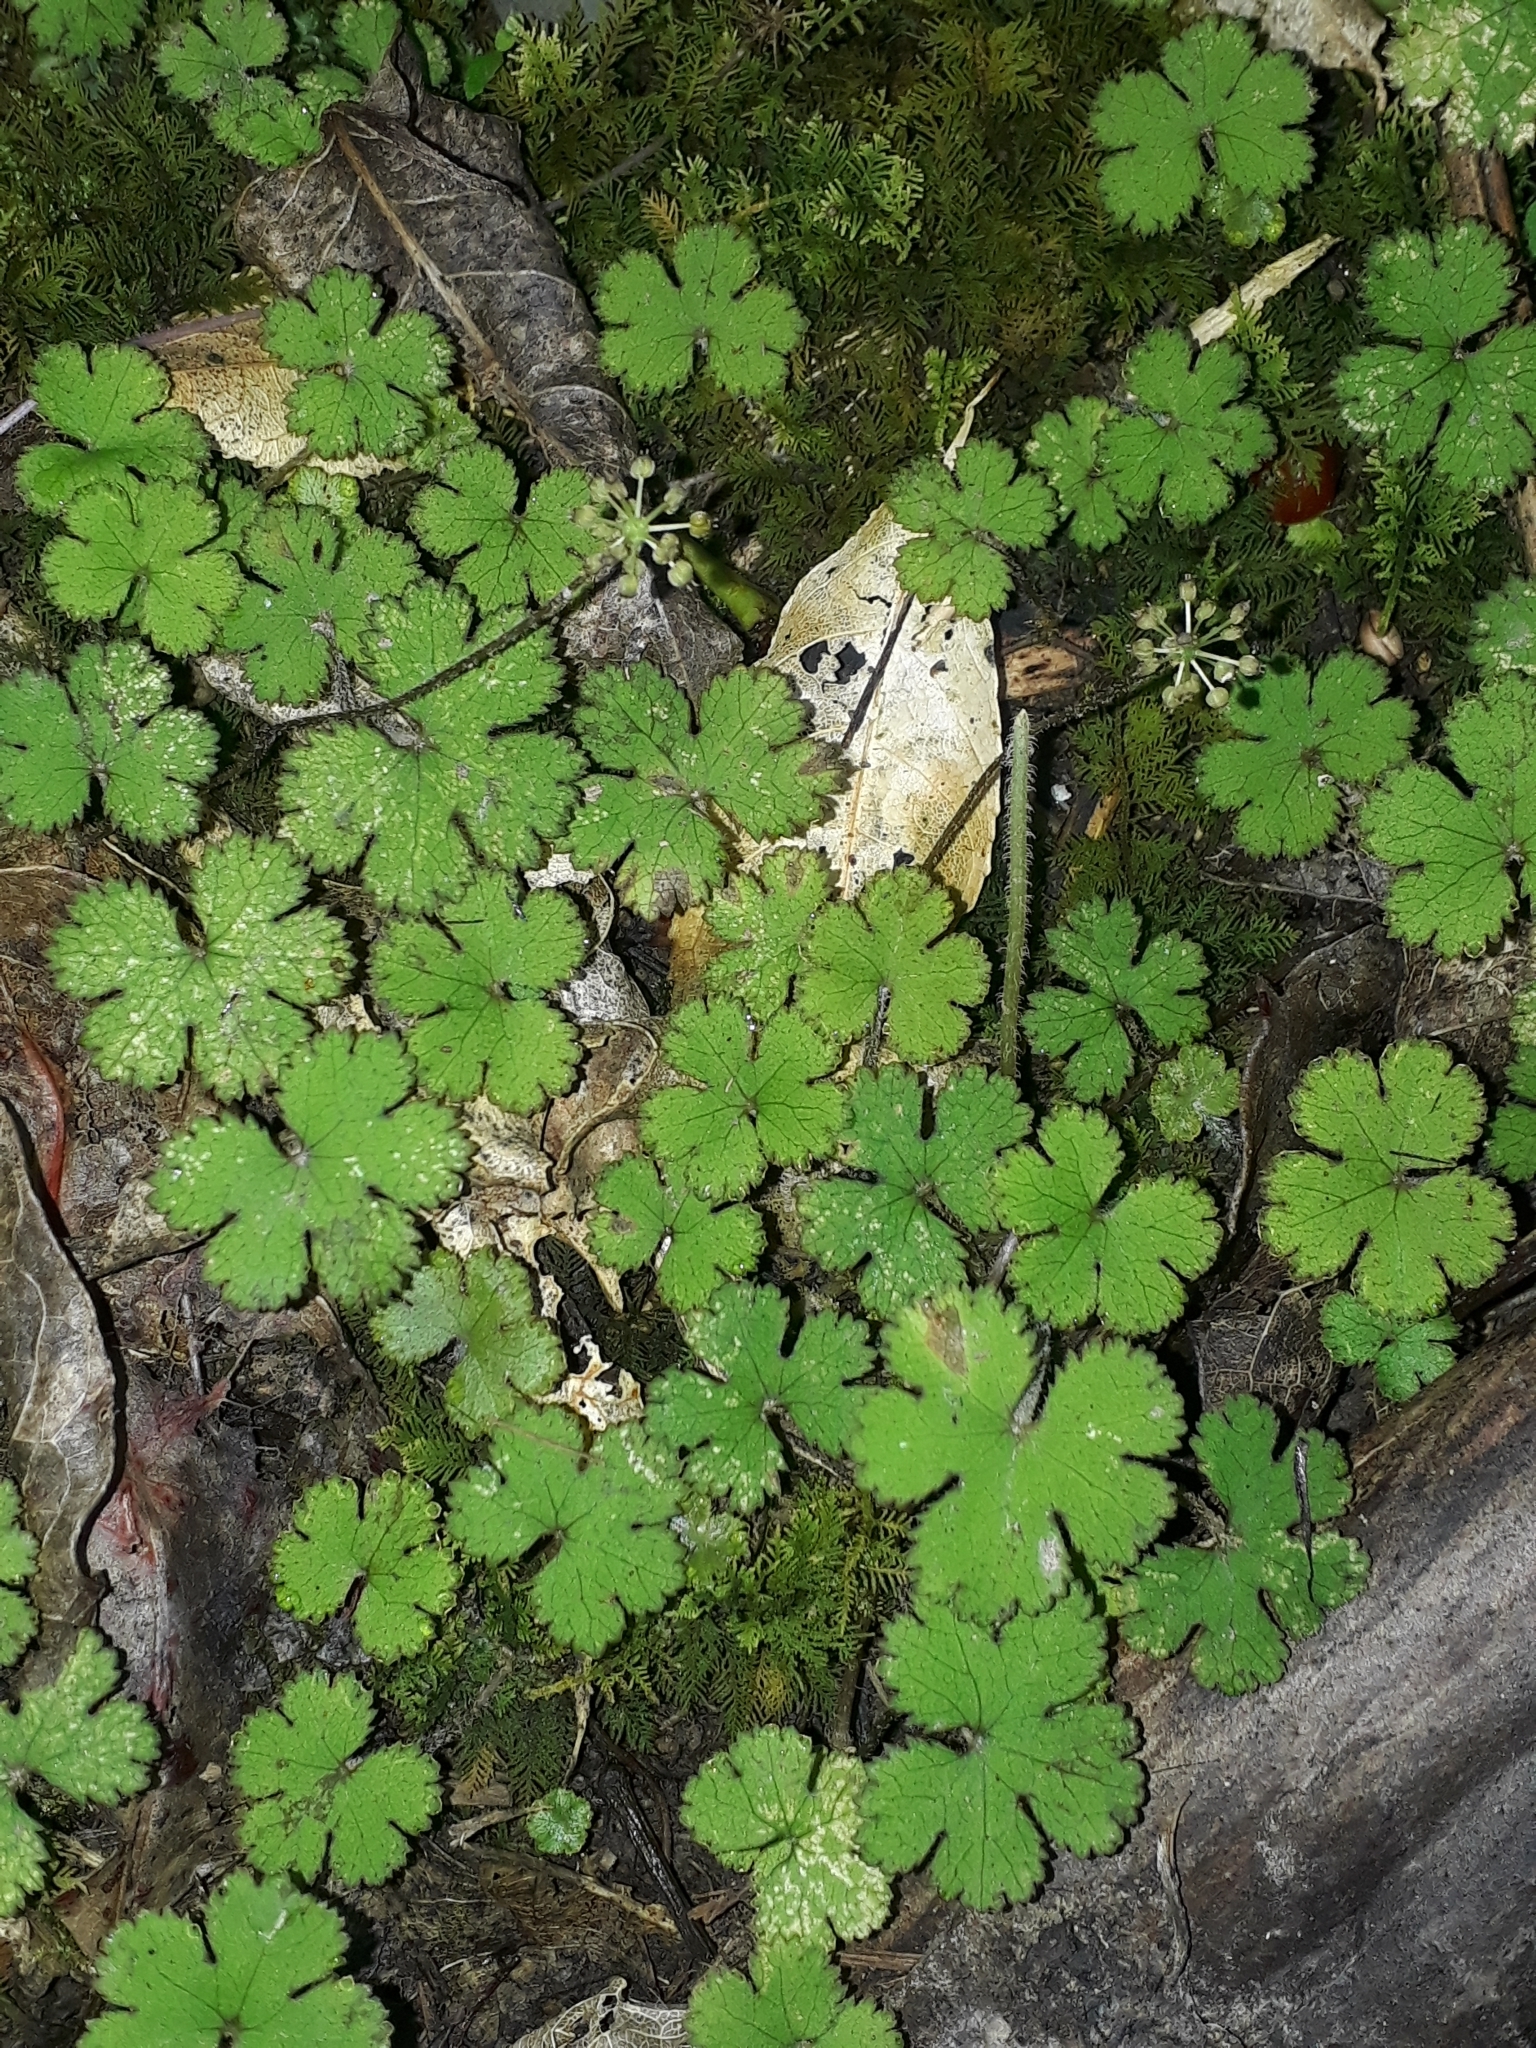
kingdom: Plantae
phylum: Tracheophyta
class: Magnoliopsida
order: Apiales
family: Araliaceae
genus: Hydrocotyle
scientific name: Hydrocotyle elongata
